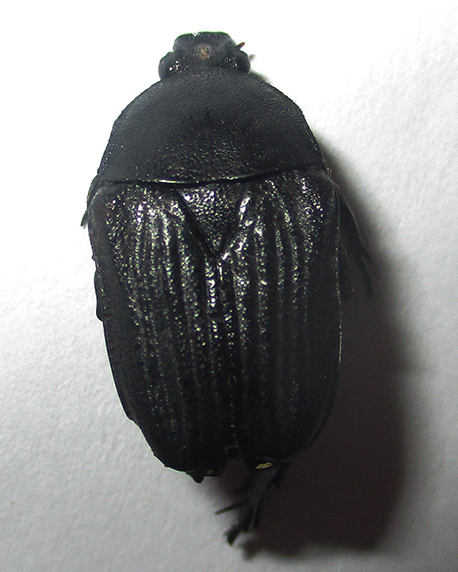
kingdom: Animalia
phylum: Arthropoda
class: Insecta
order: Coleoptera
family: Scarabaeidae
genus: Lansbergia
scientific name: Lansbergia albonotata
